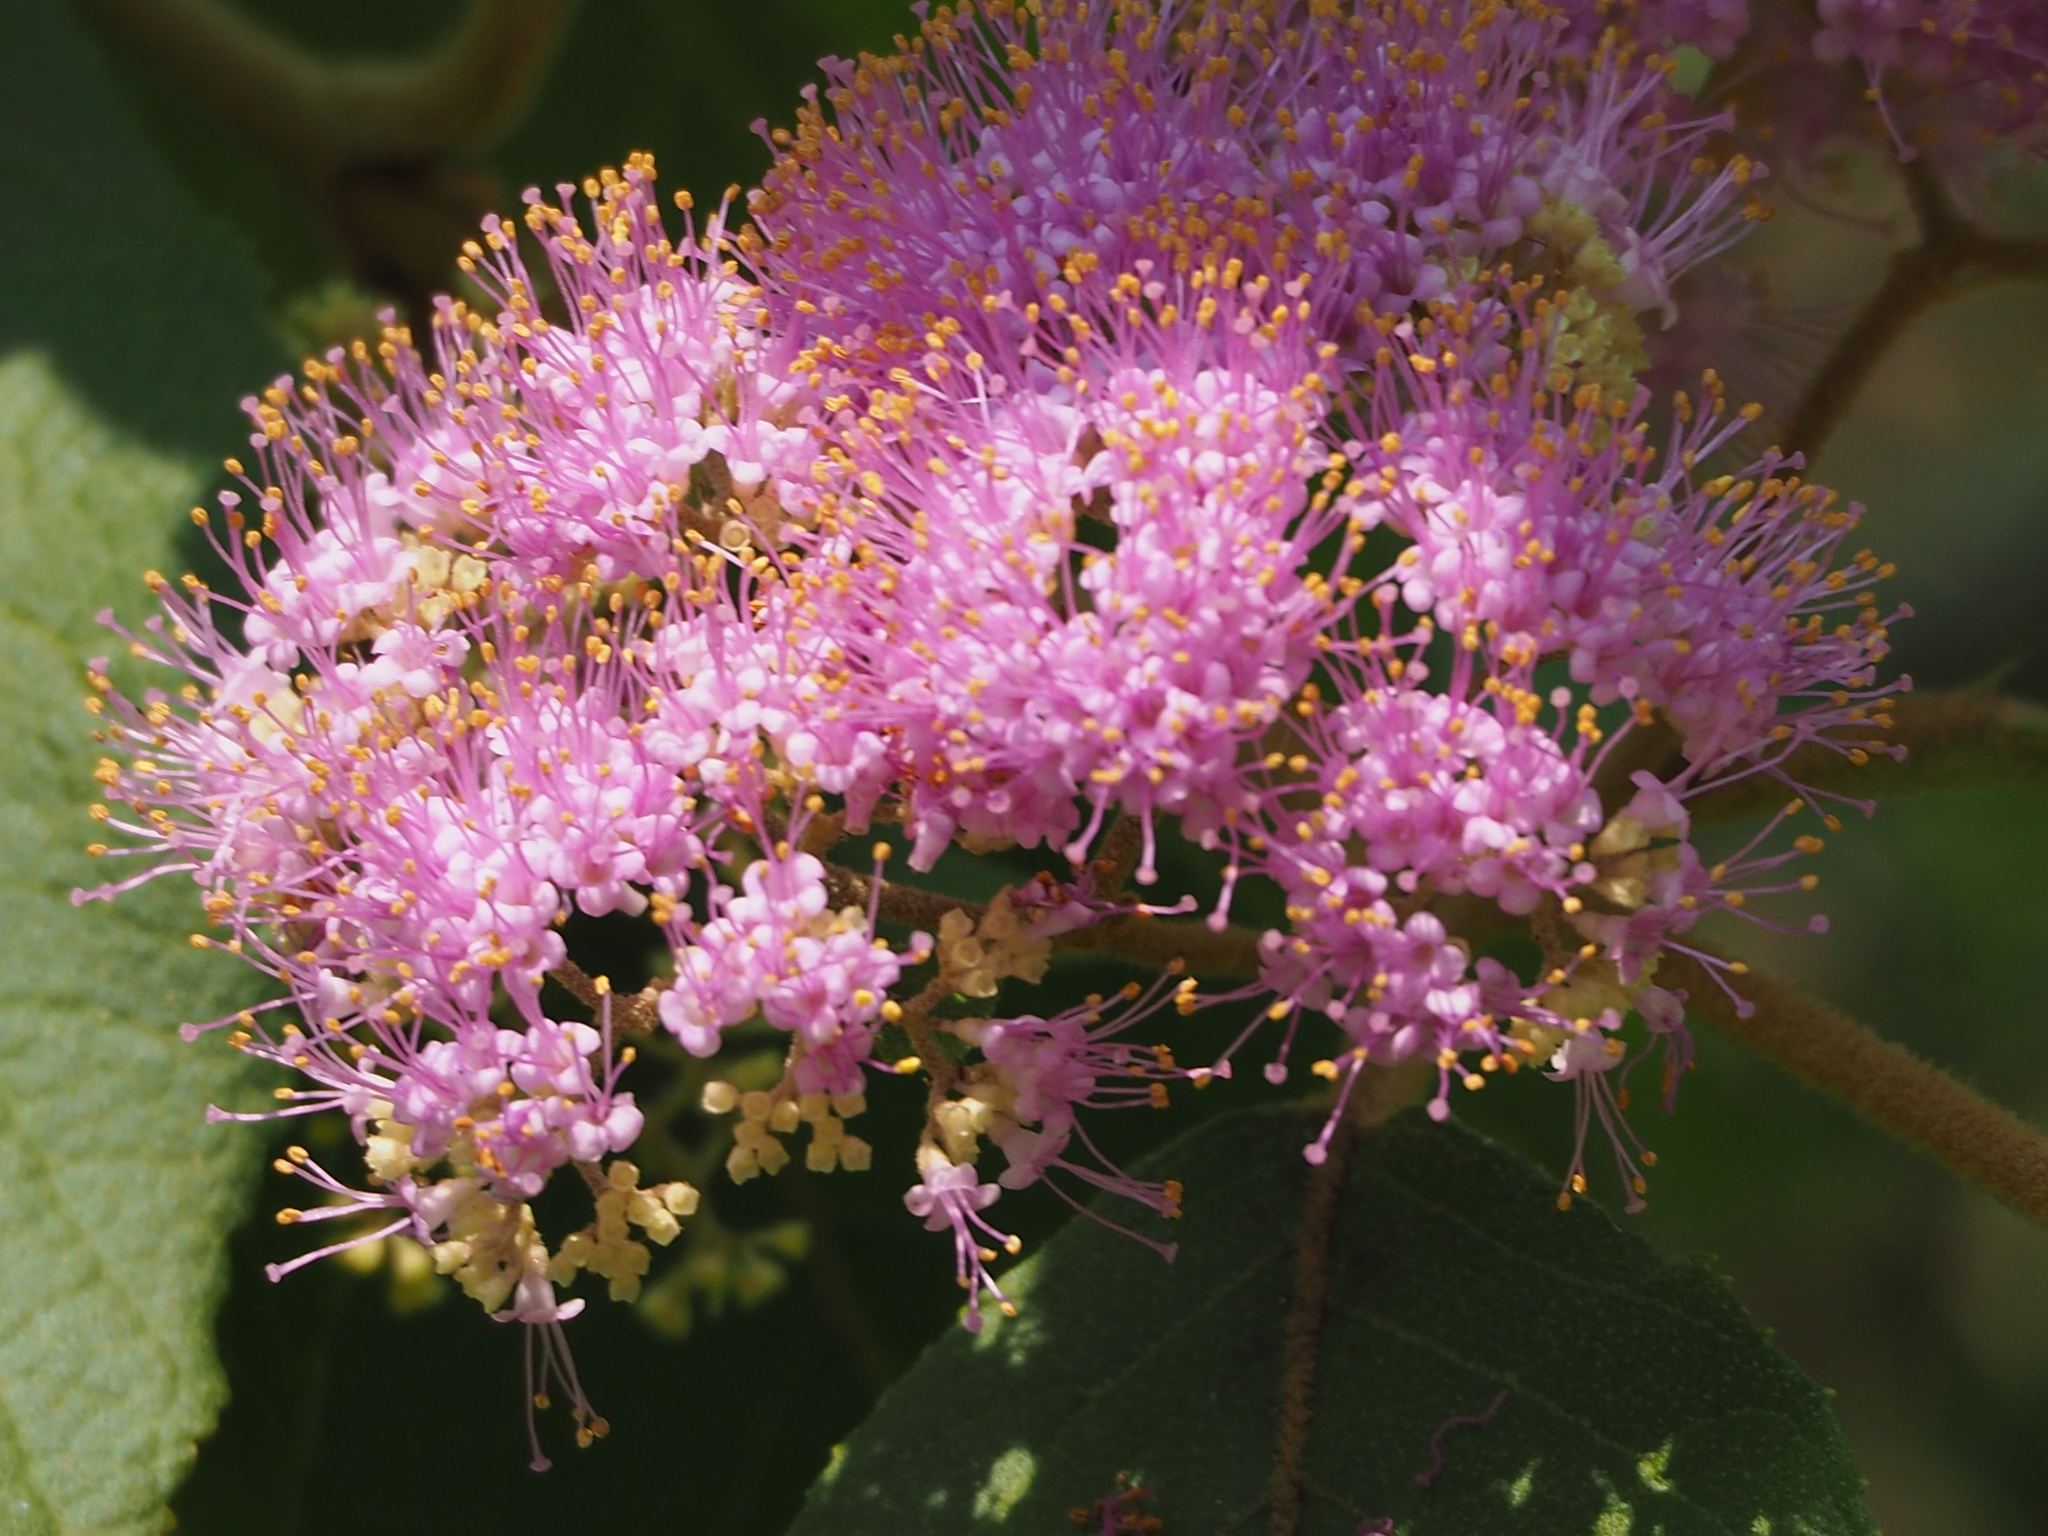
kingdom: Plantae
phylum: Tracheophyta
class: Magnoliopsida
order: Lamiales
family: Lamiaceae
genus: Callicarpa
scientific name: Callicarpa pedunculata
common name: Velvetleaf
